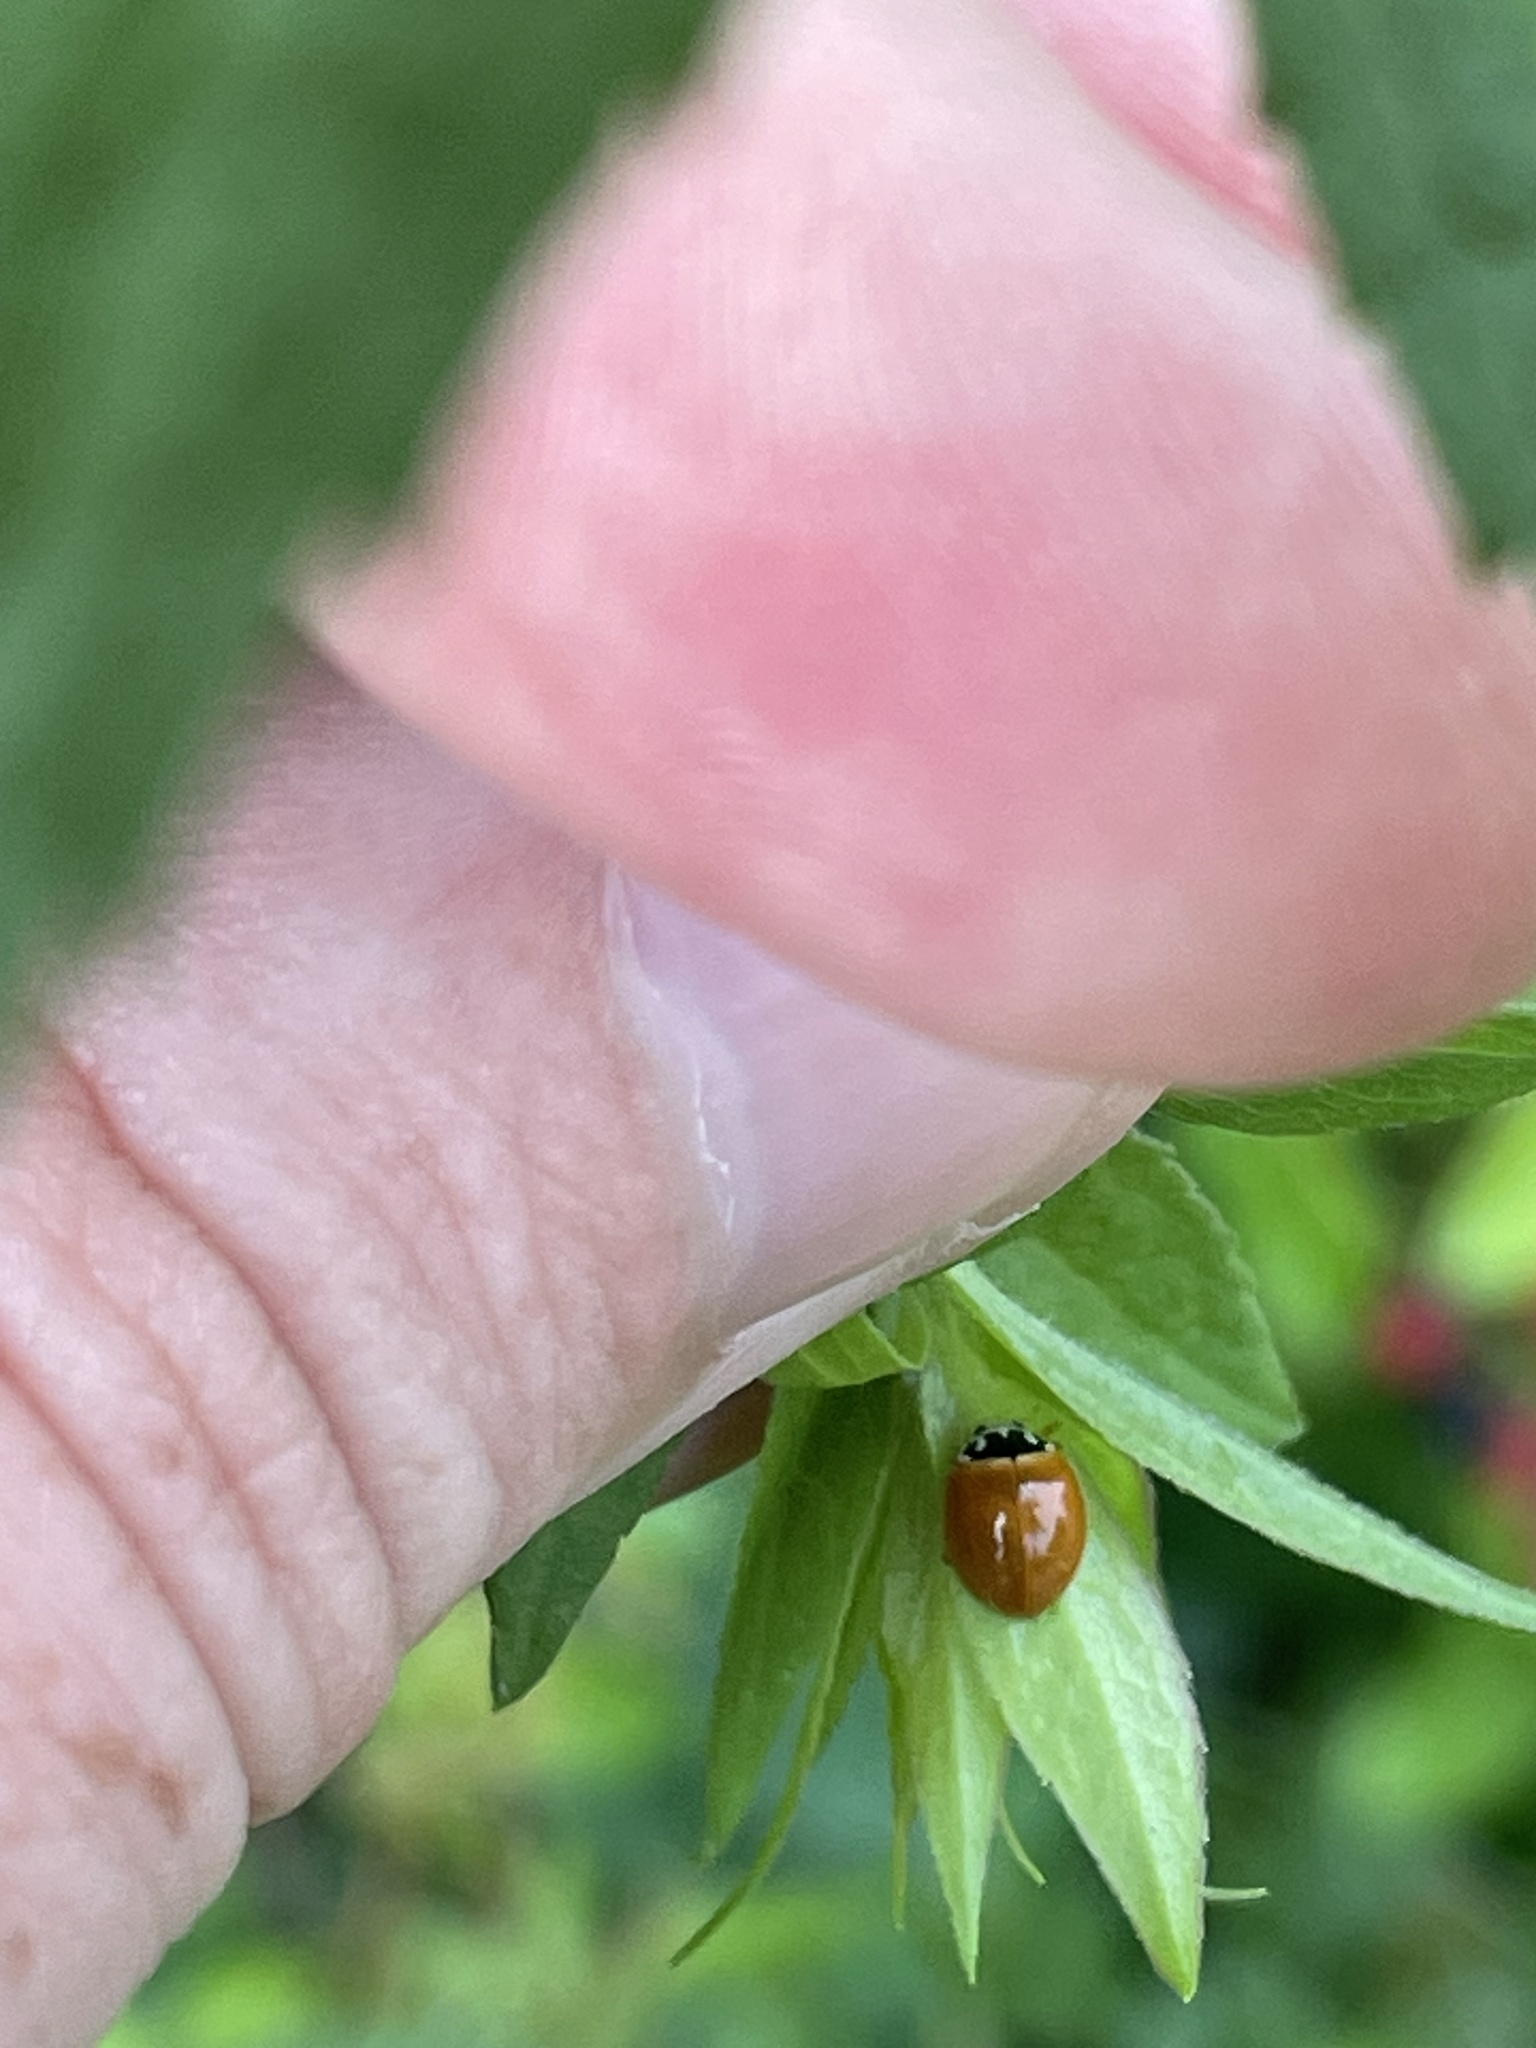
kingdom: Animalia
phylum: Arthropoda
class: Insecta
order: Coleoptera
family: Coccinellidae
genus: Cycloneda
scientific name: Cycloneda munda
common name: Polished lady beetle
